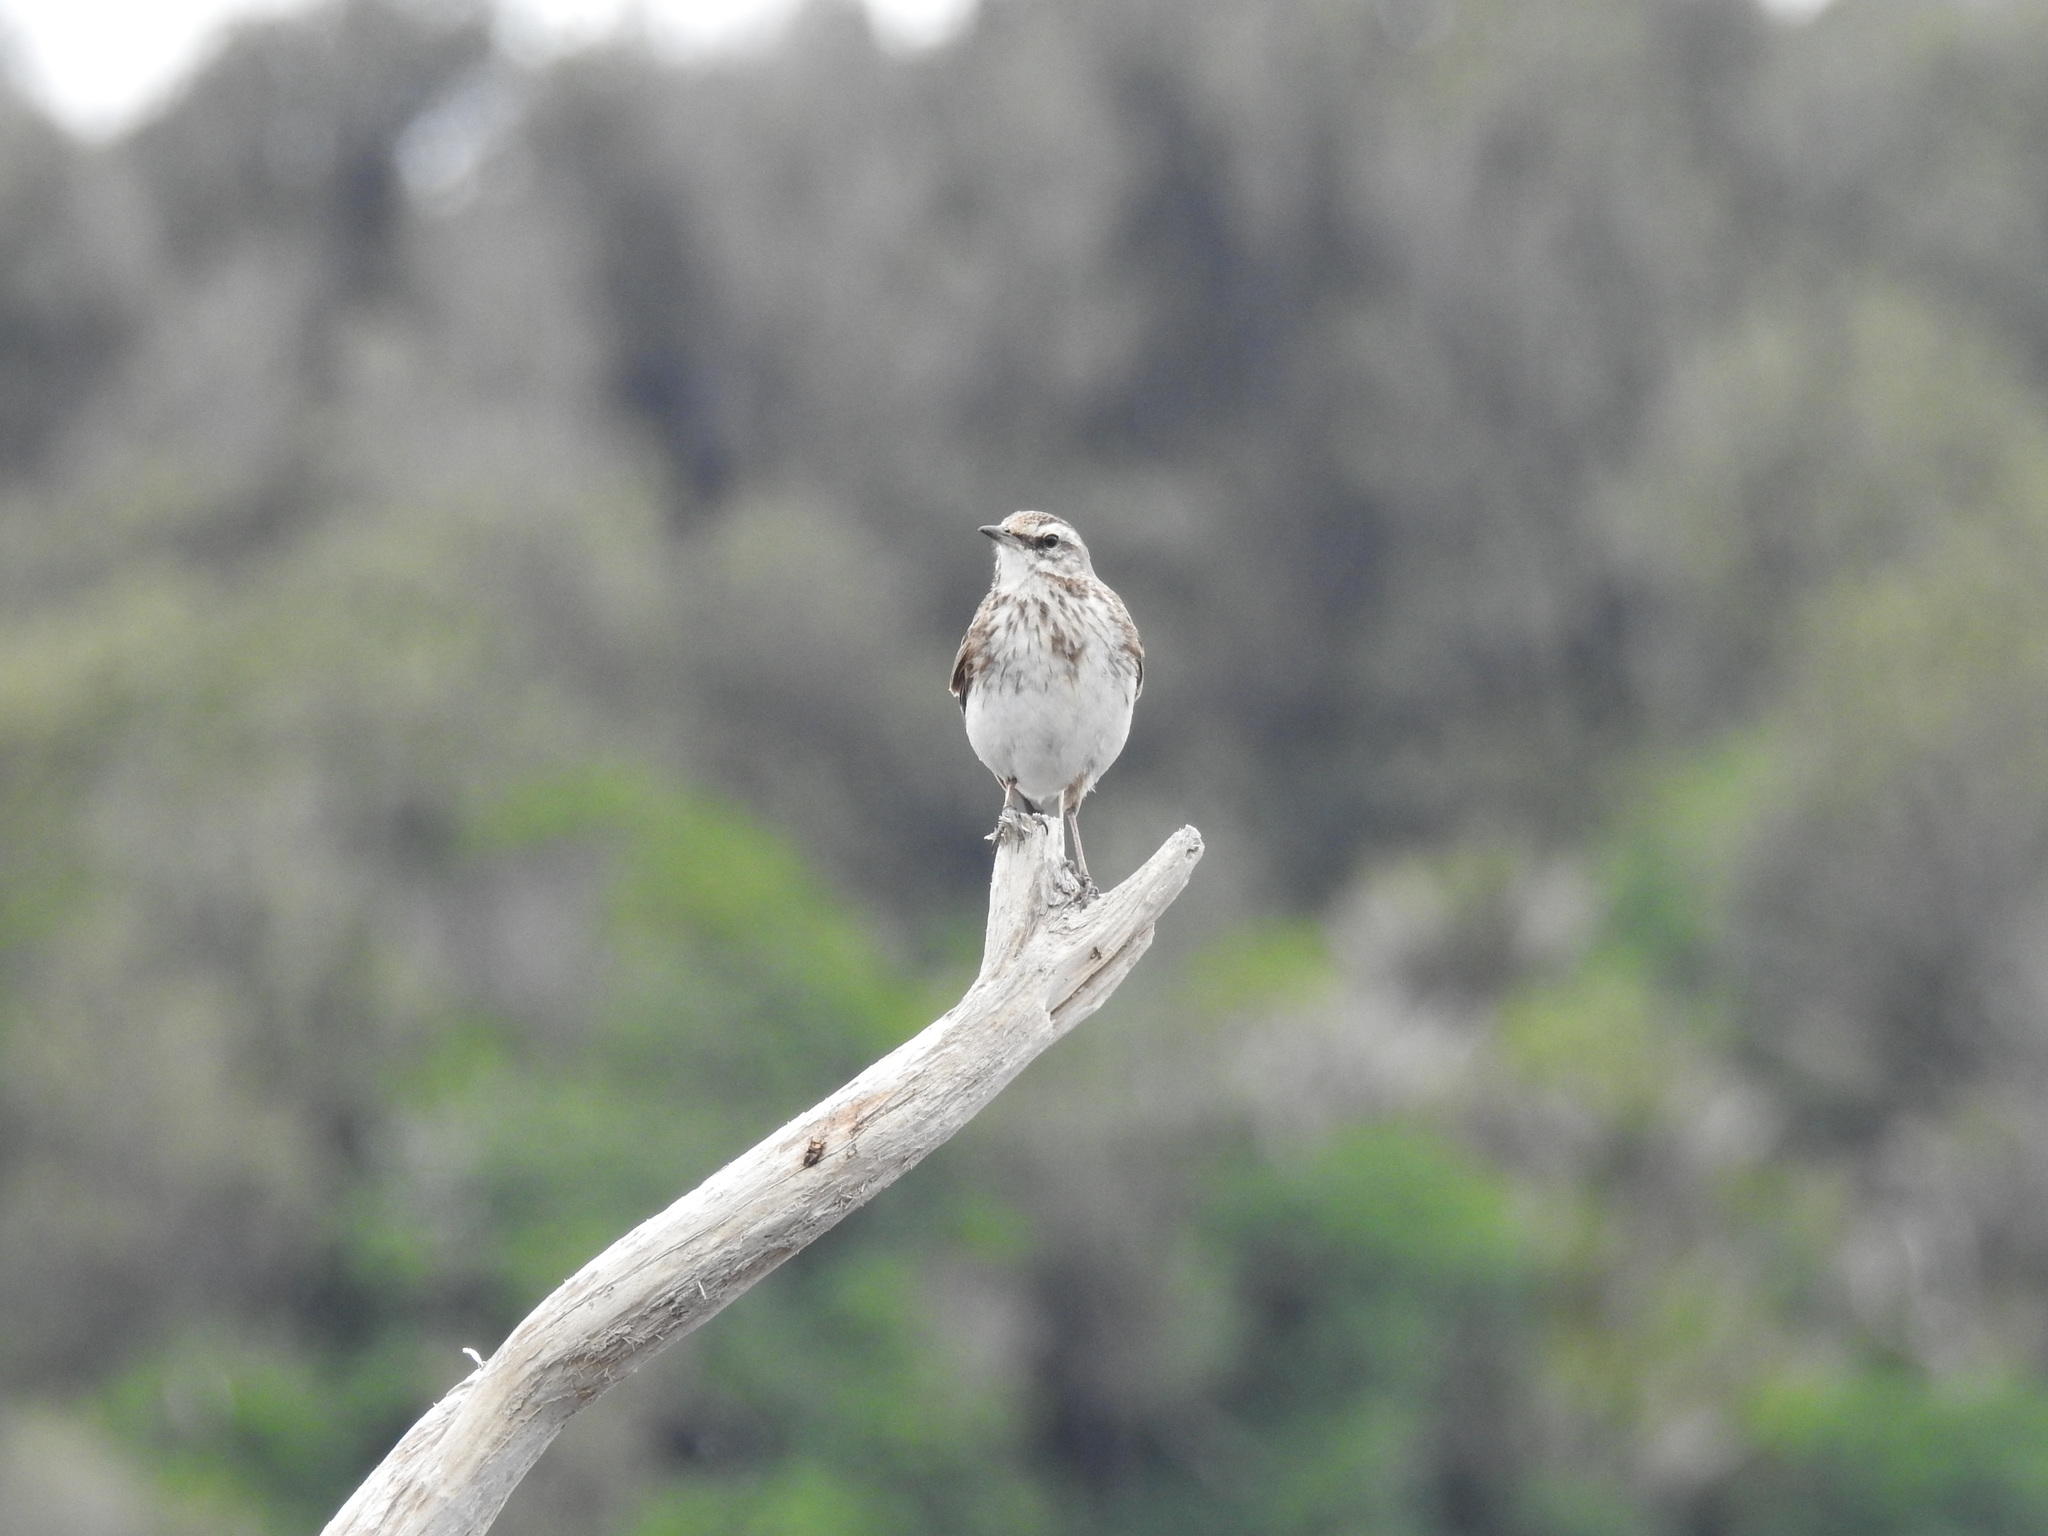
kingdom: Animalia
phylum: Chordata
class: Aves
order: Passeriformes
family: Motacillidae
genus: Anthus
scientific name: Anthus novaeseelandiae
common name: New zealand pipit
